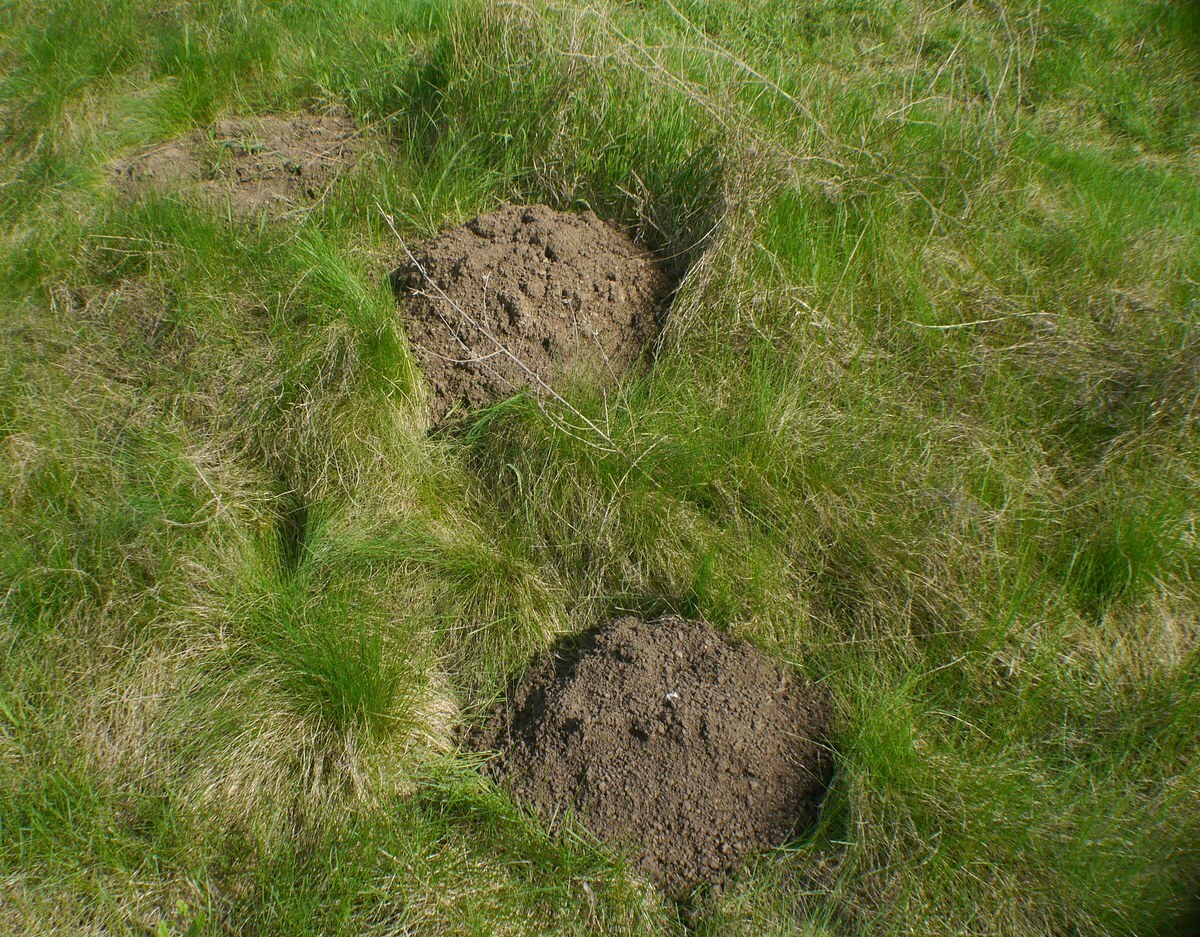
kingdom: Animalia
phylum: Chordata
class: Mammalia
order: Rodentia
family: Spalacidae
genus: Spalax
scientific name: Spalax zemni
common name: Podolsk blind mole rat
